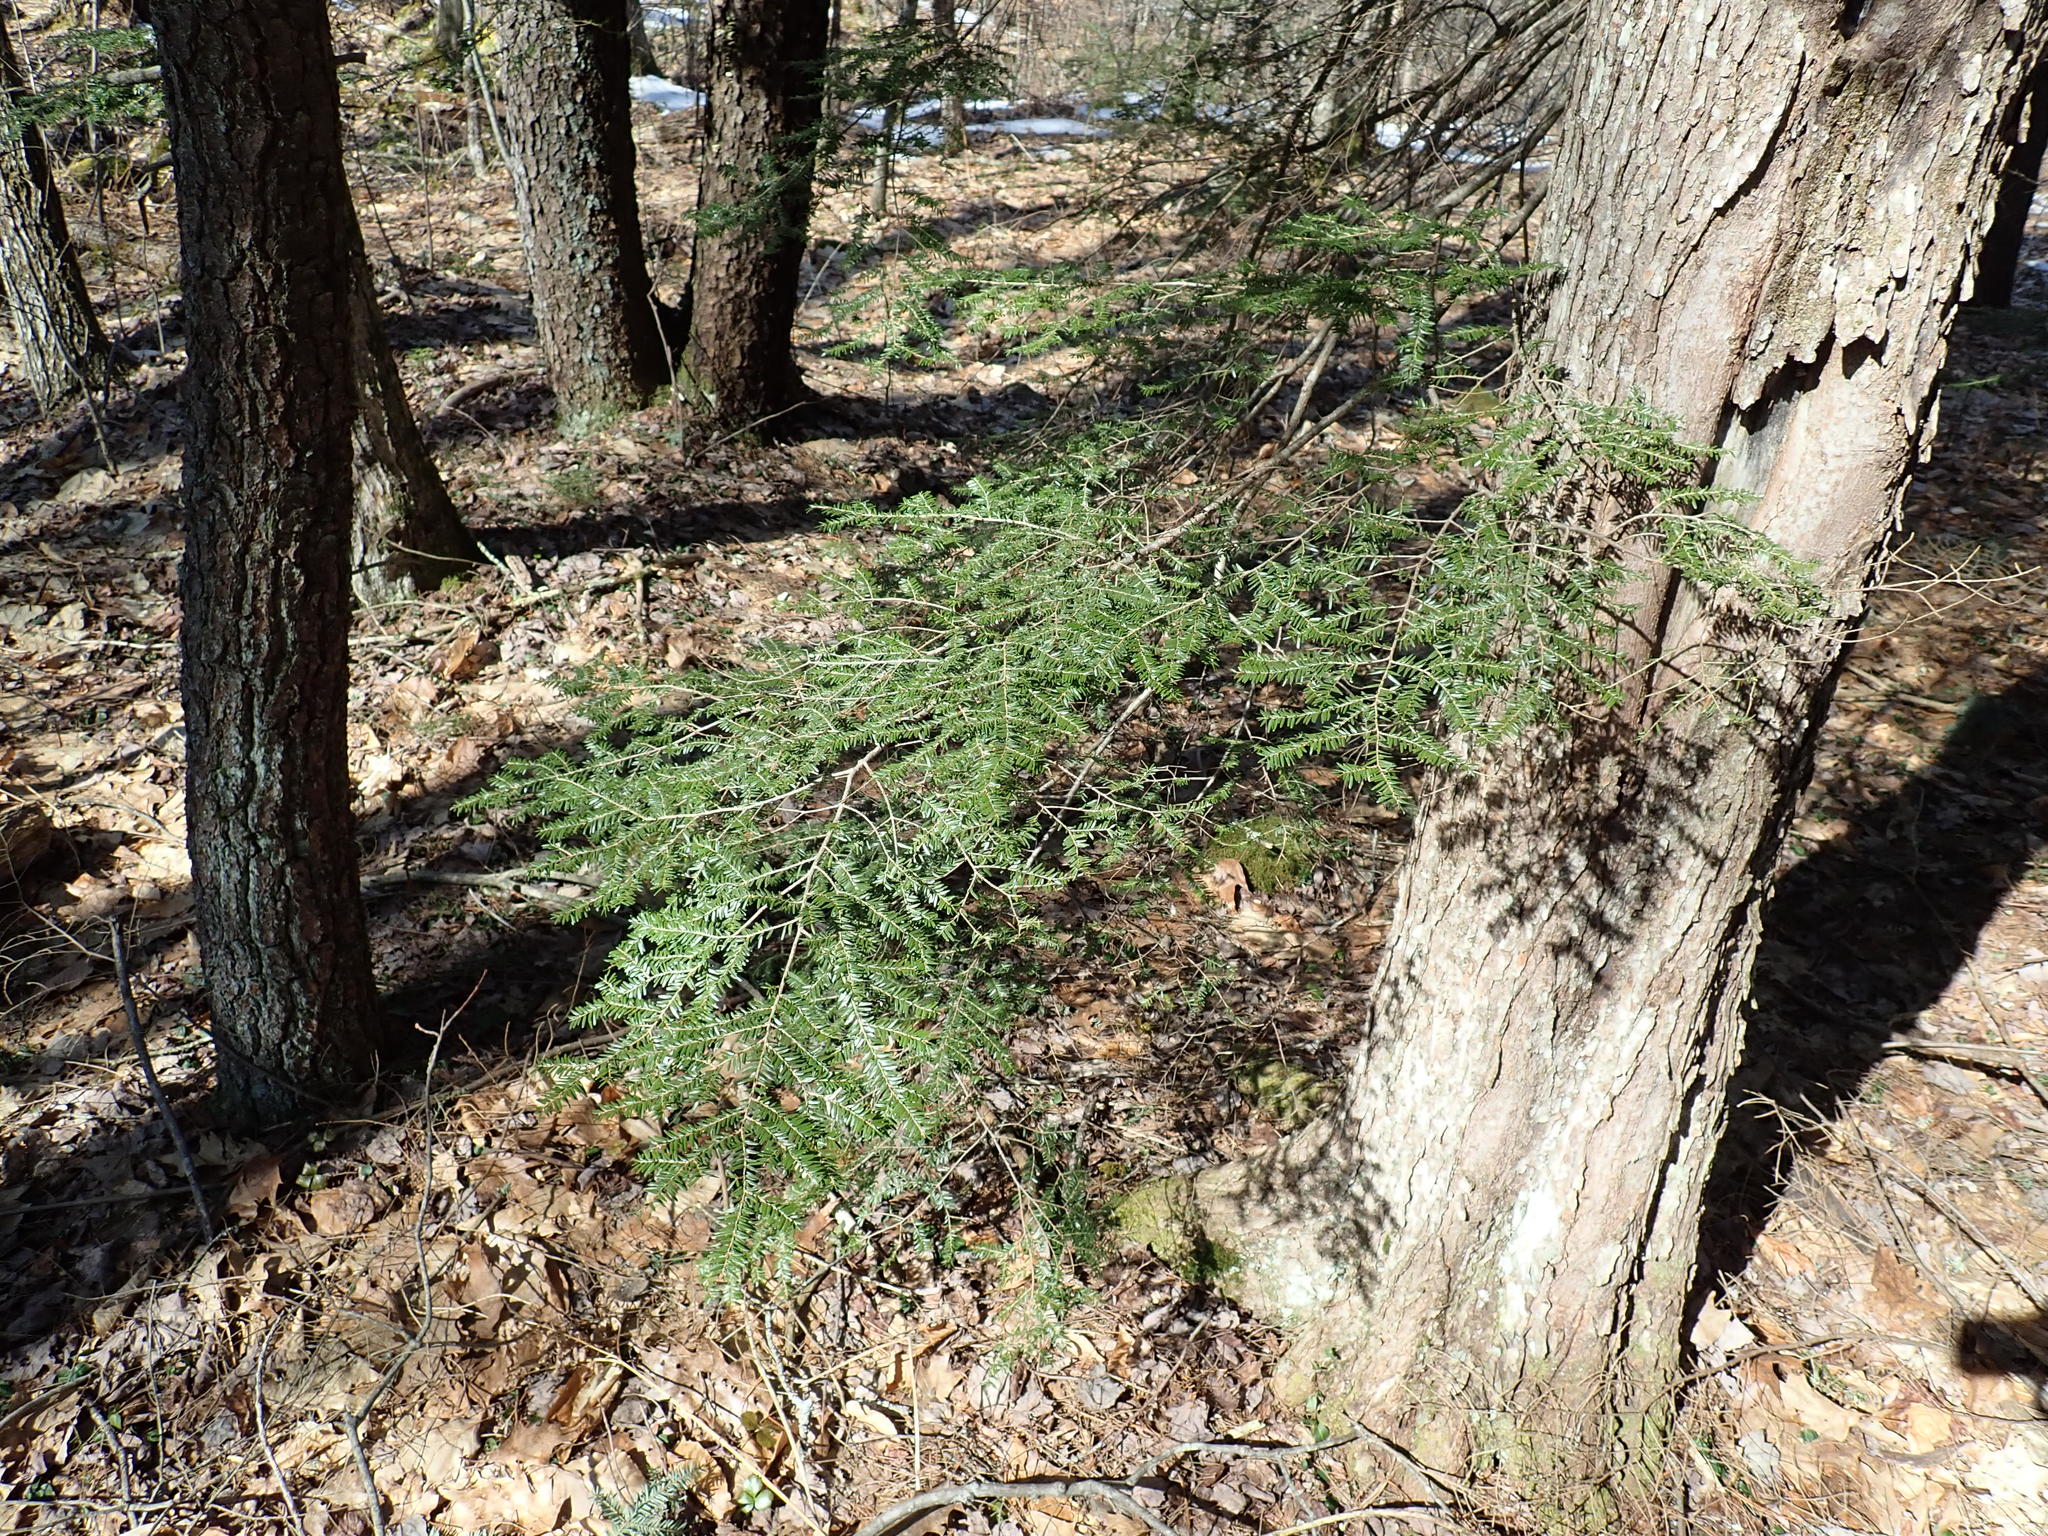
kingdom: Plantae
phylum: Tracheophyta
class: Pinopsida
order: Pinales
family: Pinaceae
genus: Tsuga
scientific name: Tsuga canadensis
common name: Eastern hemlock
